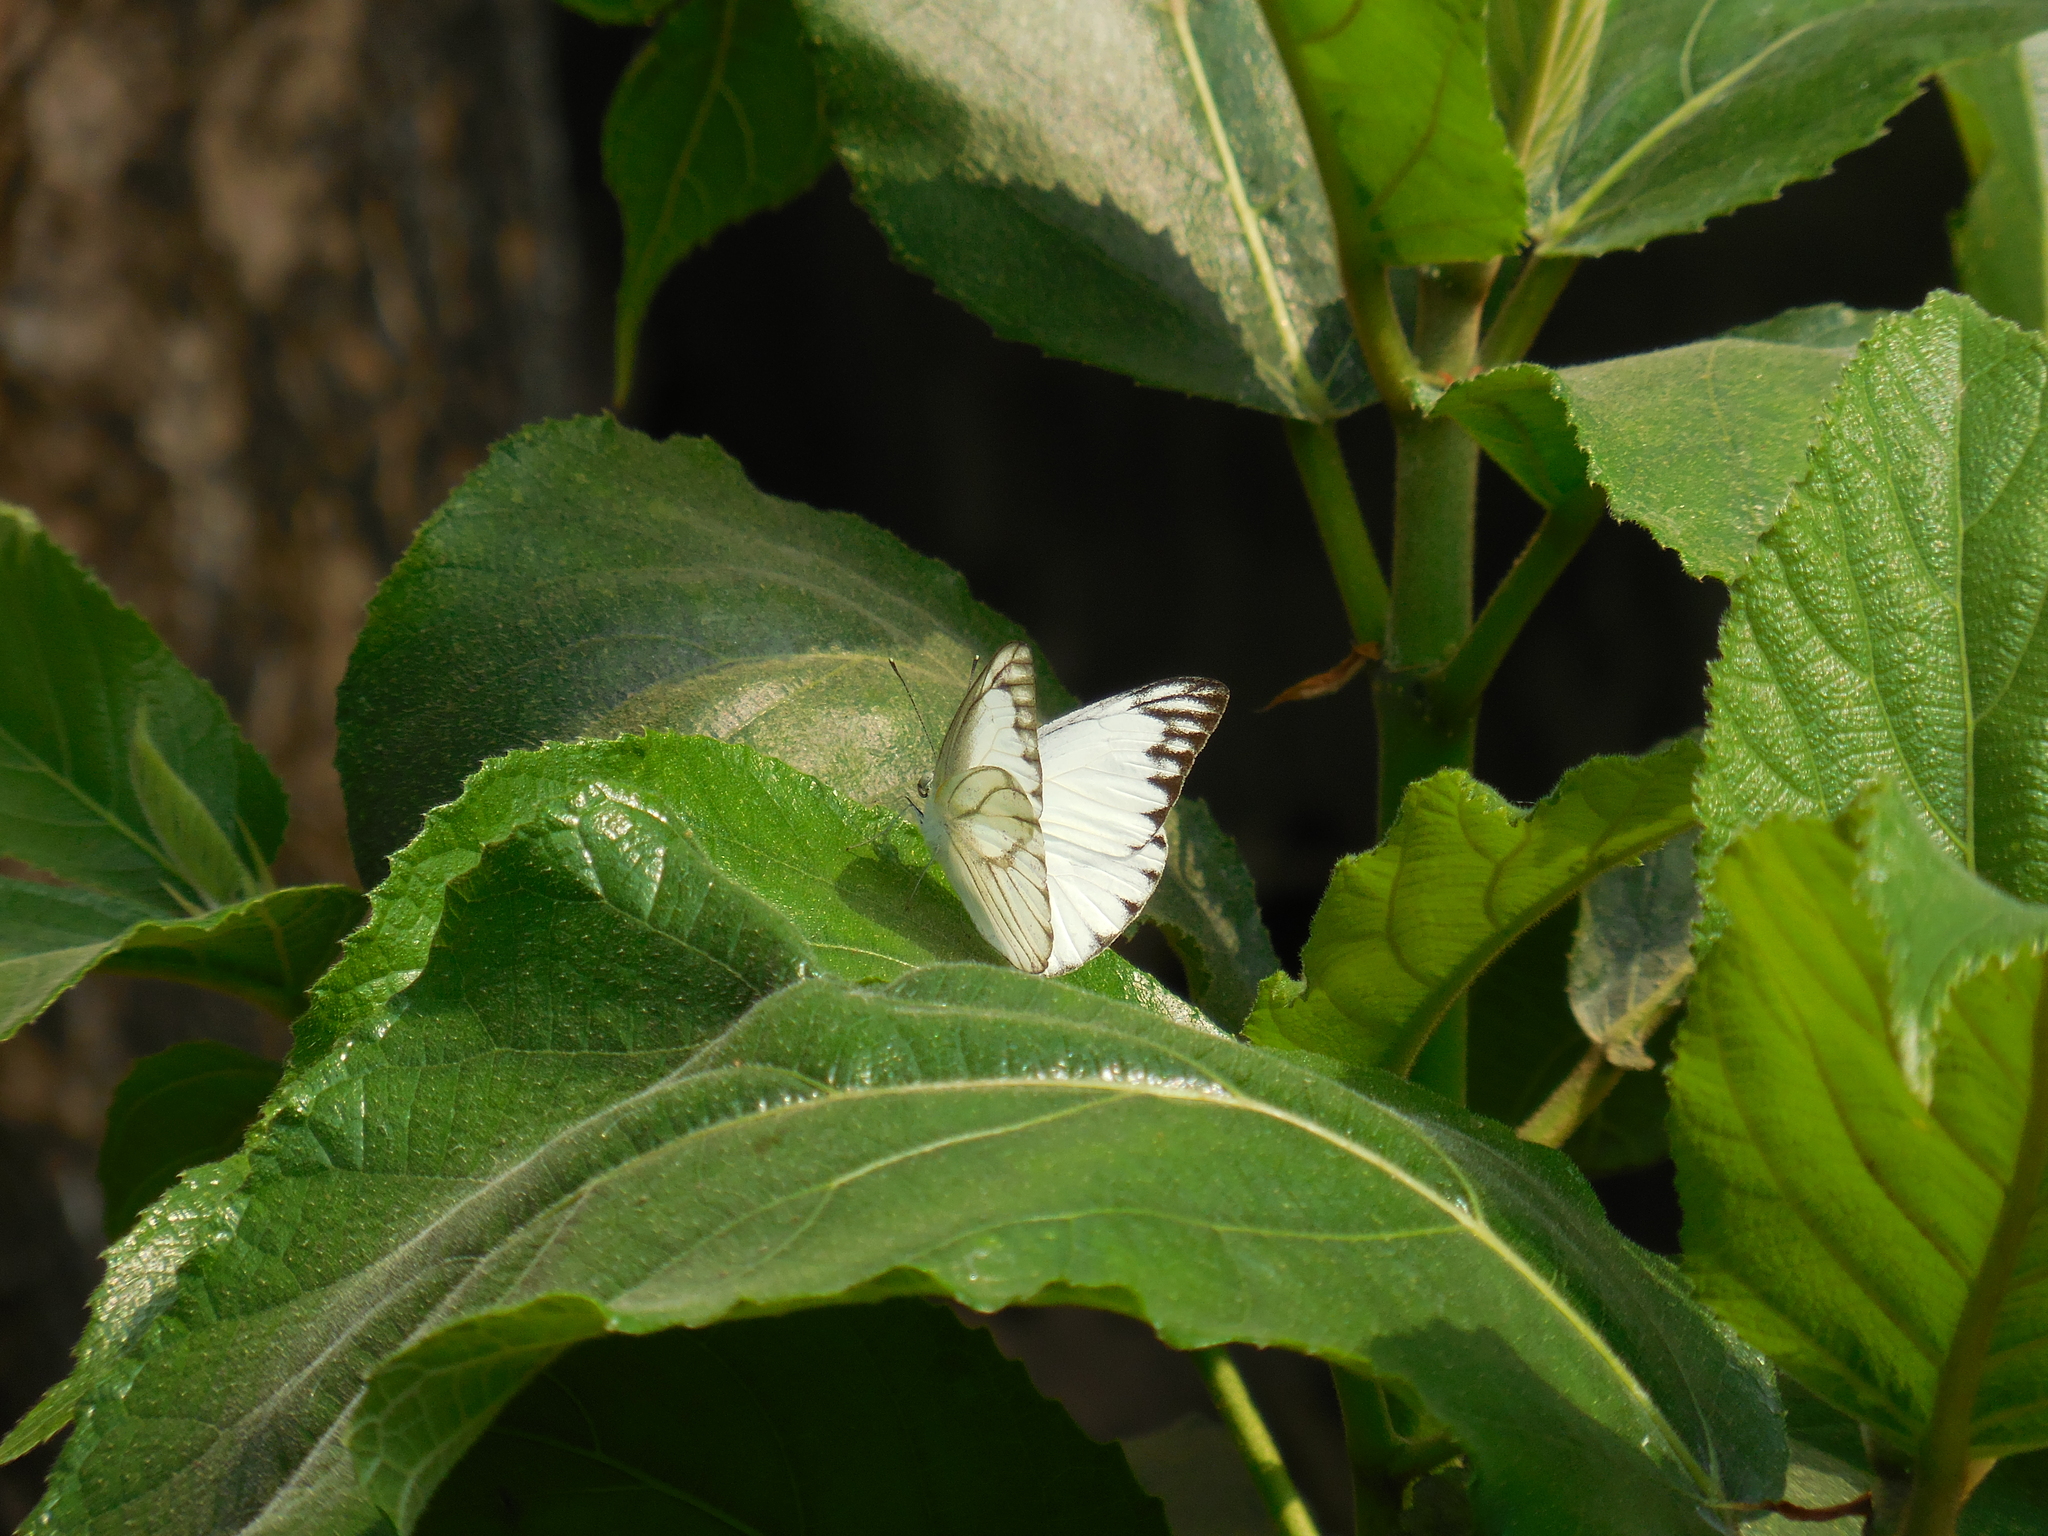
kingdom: Animalia
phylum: Arthropoda
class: Insecta
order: Lepidoptera
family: Pieridae
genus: Appias
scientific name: Appias libythea
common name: Striped albatross
